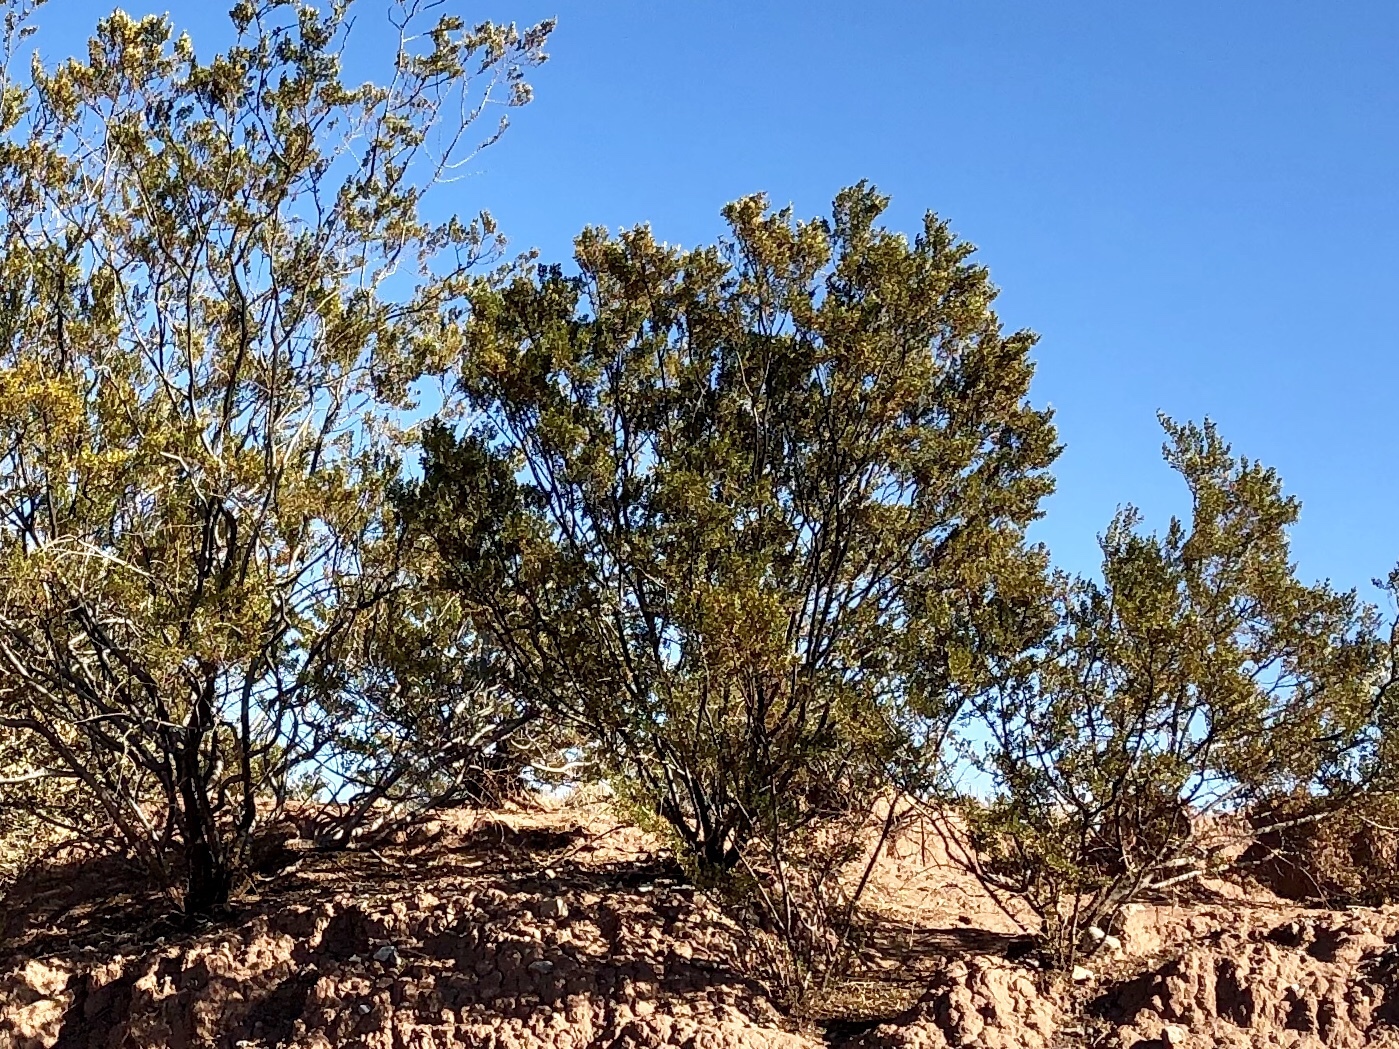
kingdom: Plantae
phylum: Tracheophyta
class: Magnoliopsida
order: Zygophyllales
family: Zygophyllaceae
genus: Larrea
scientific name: Larrea tridentata
